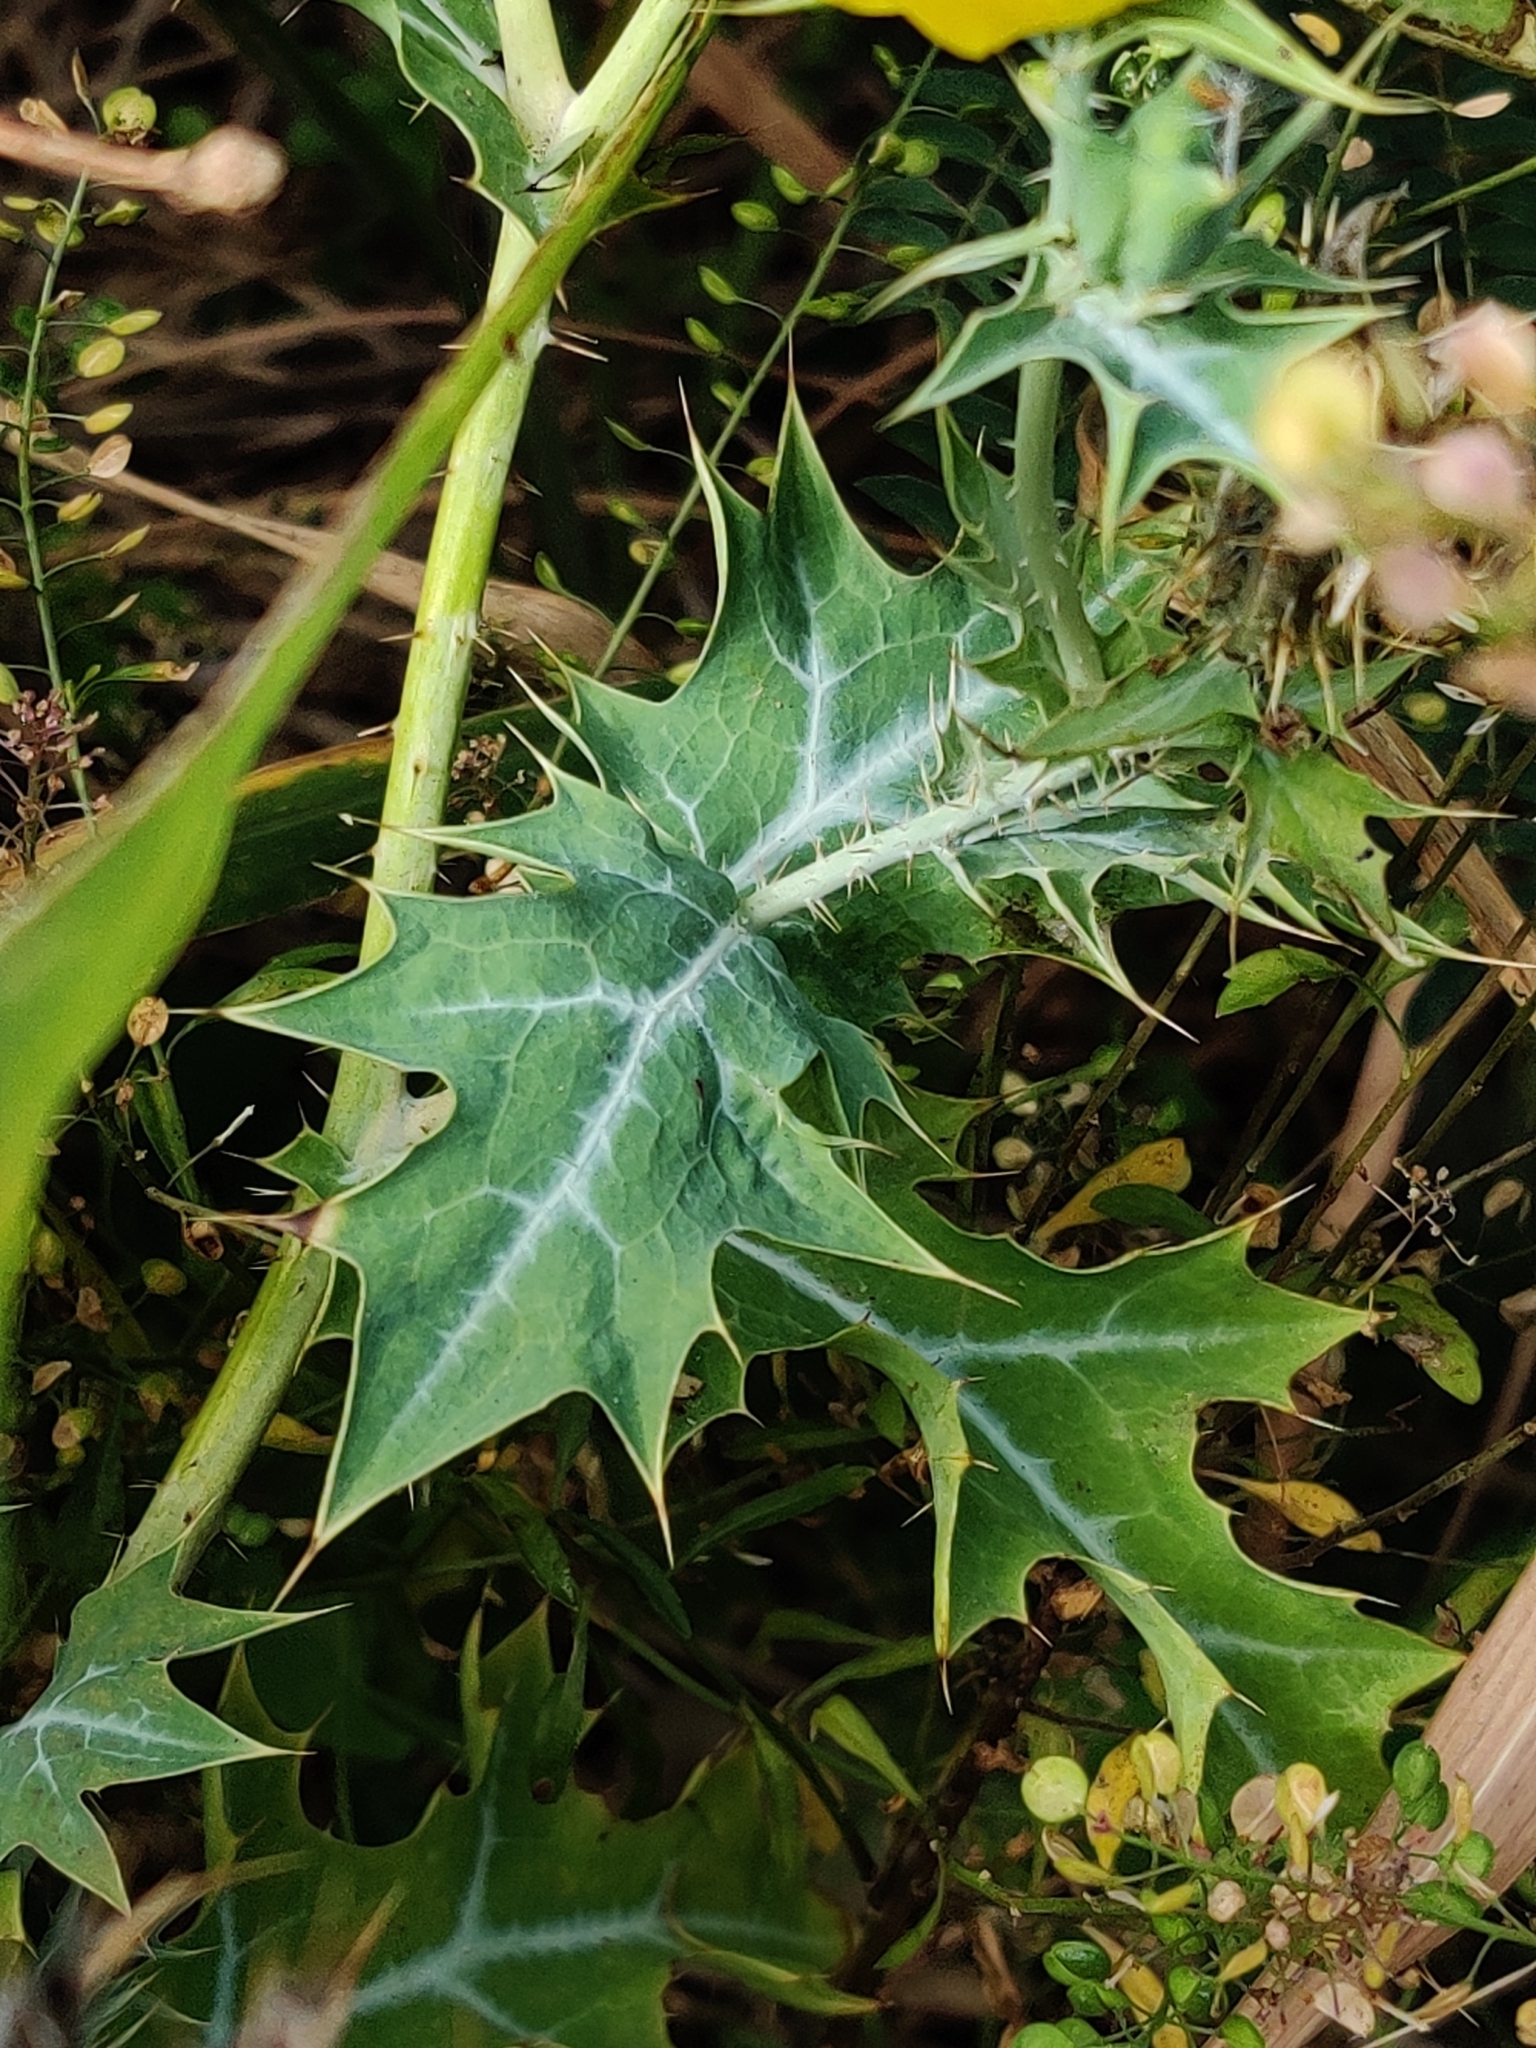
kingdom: Plantae
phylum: Tracheophyta
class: Magnoliopsida
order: Ranunculales
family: Papaveraceae
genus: Argemone
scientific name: Argemone mexicana
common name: Mexican poppy
